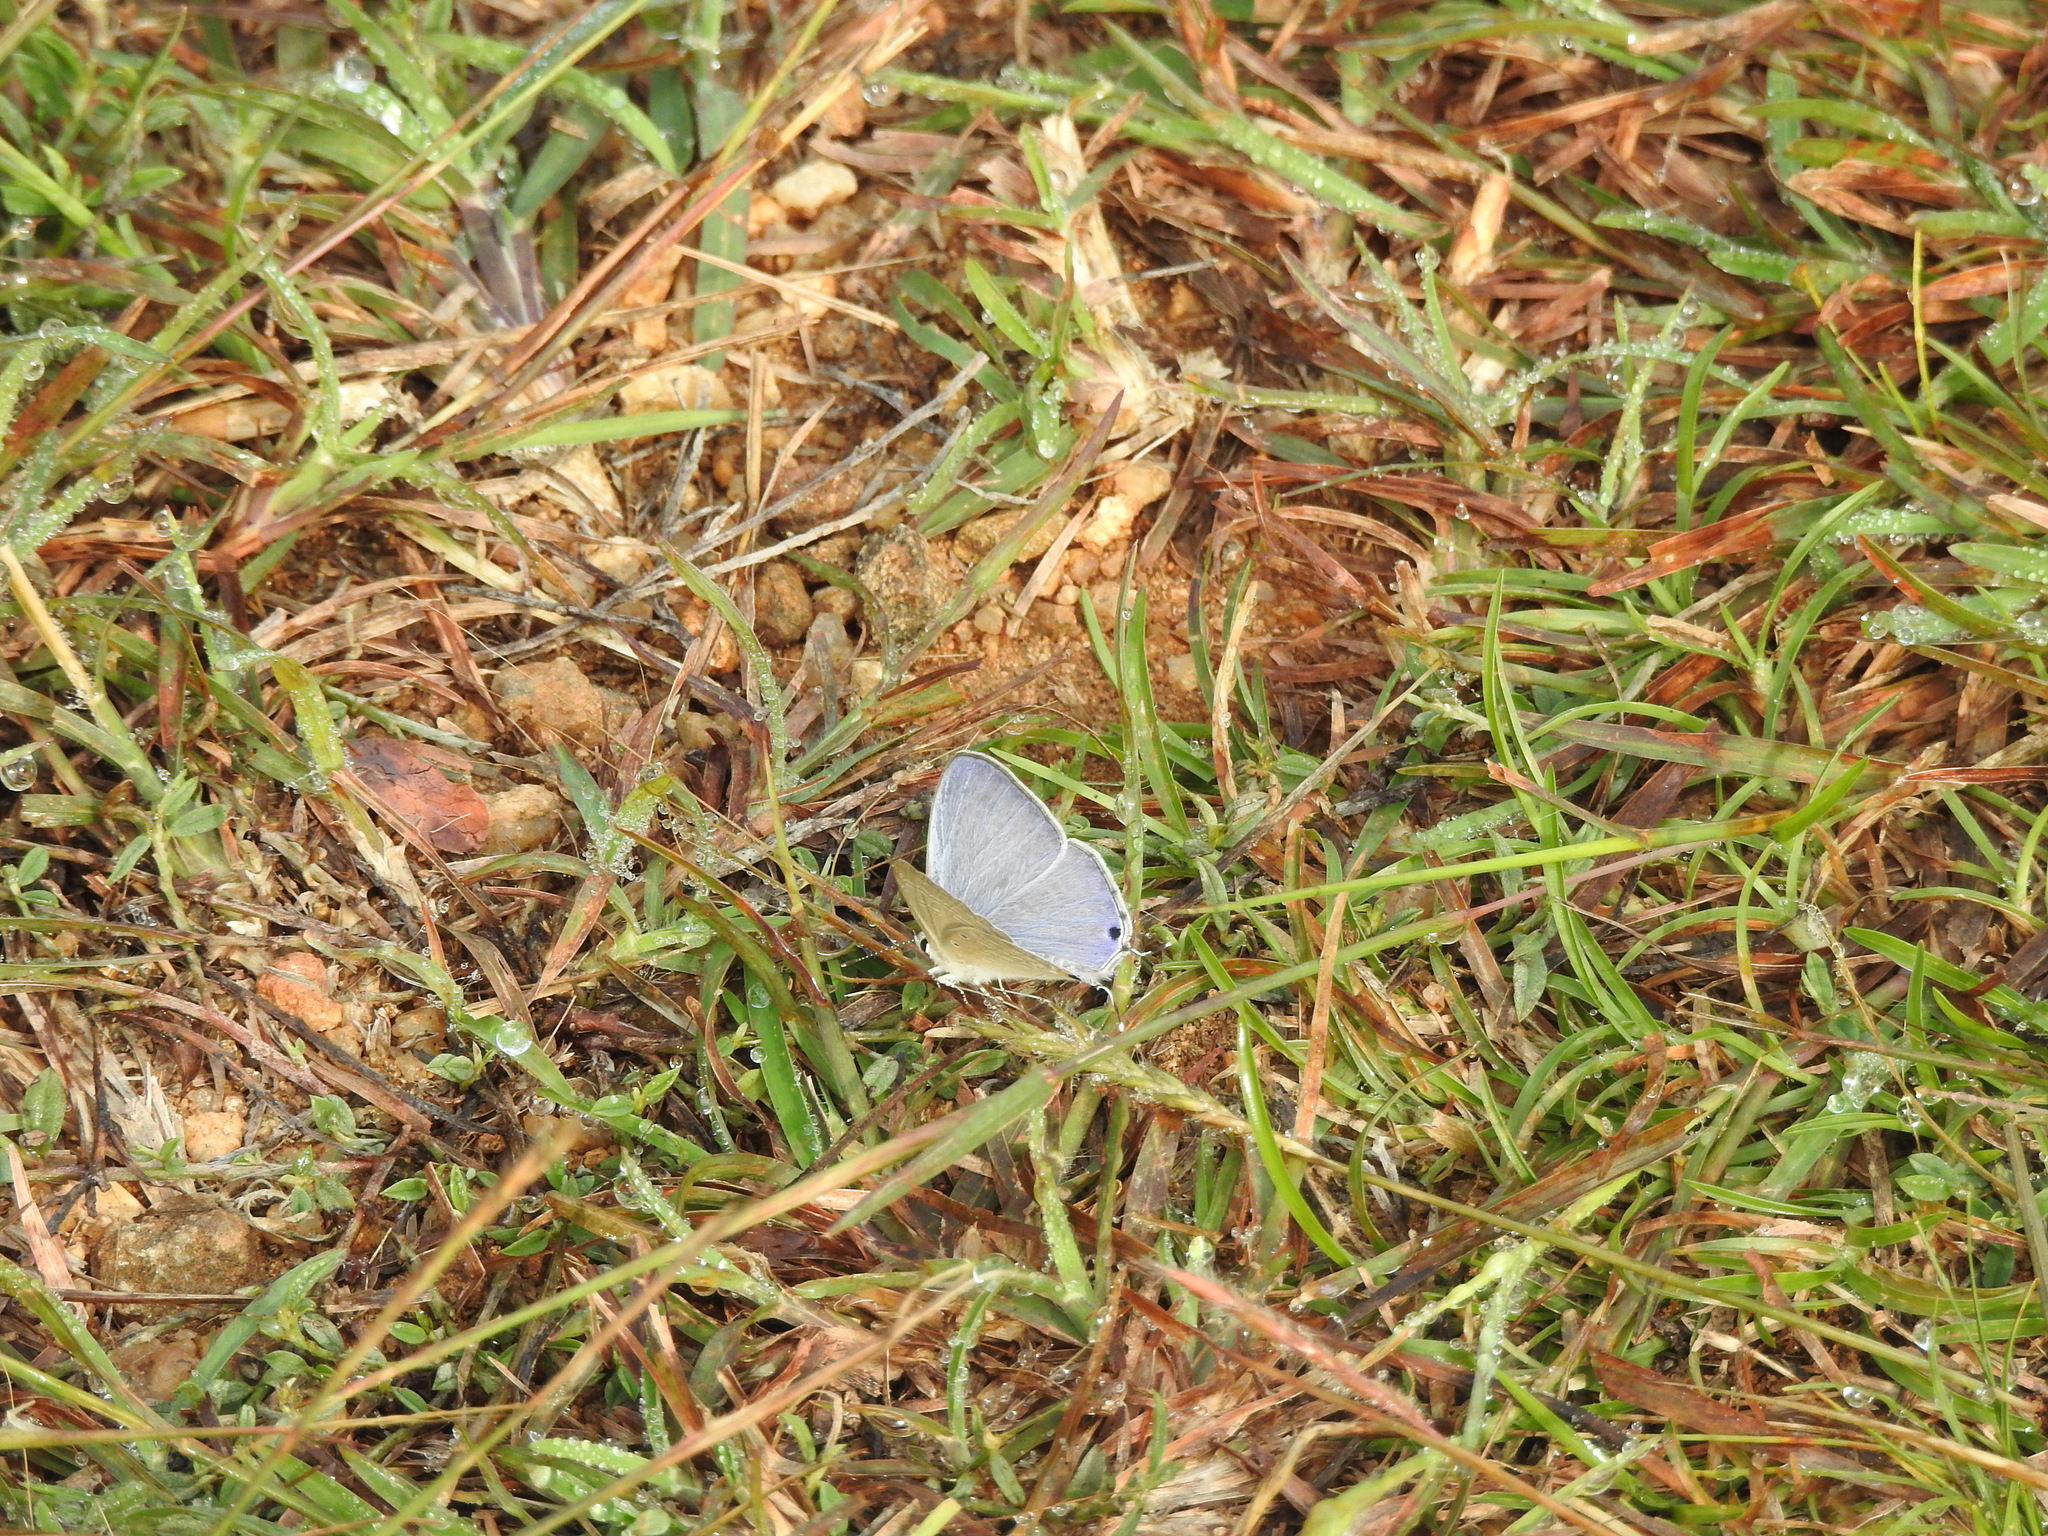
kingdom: Animalia
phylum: Arthropoda
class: Insecta
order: Lepidoptera
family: Lycaenidae
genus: Catochrysops
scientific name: Catochrysops strabo
